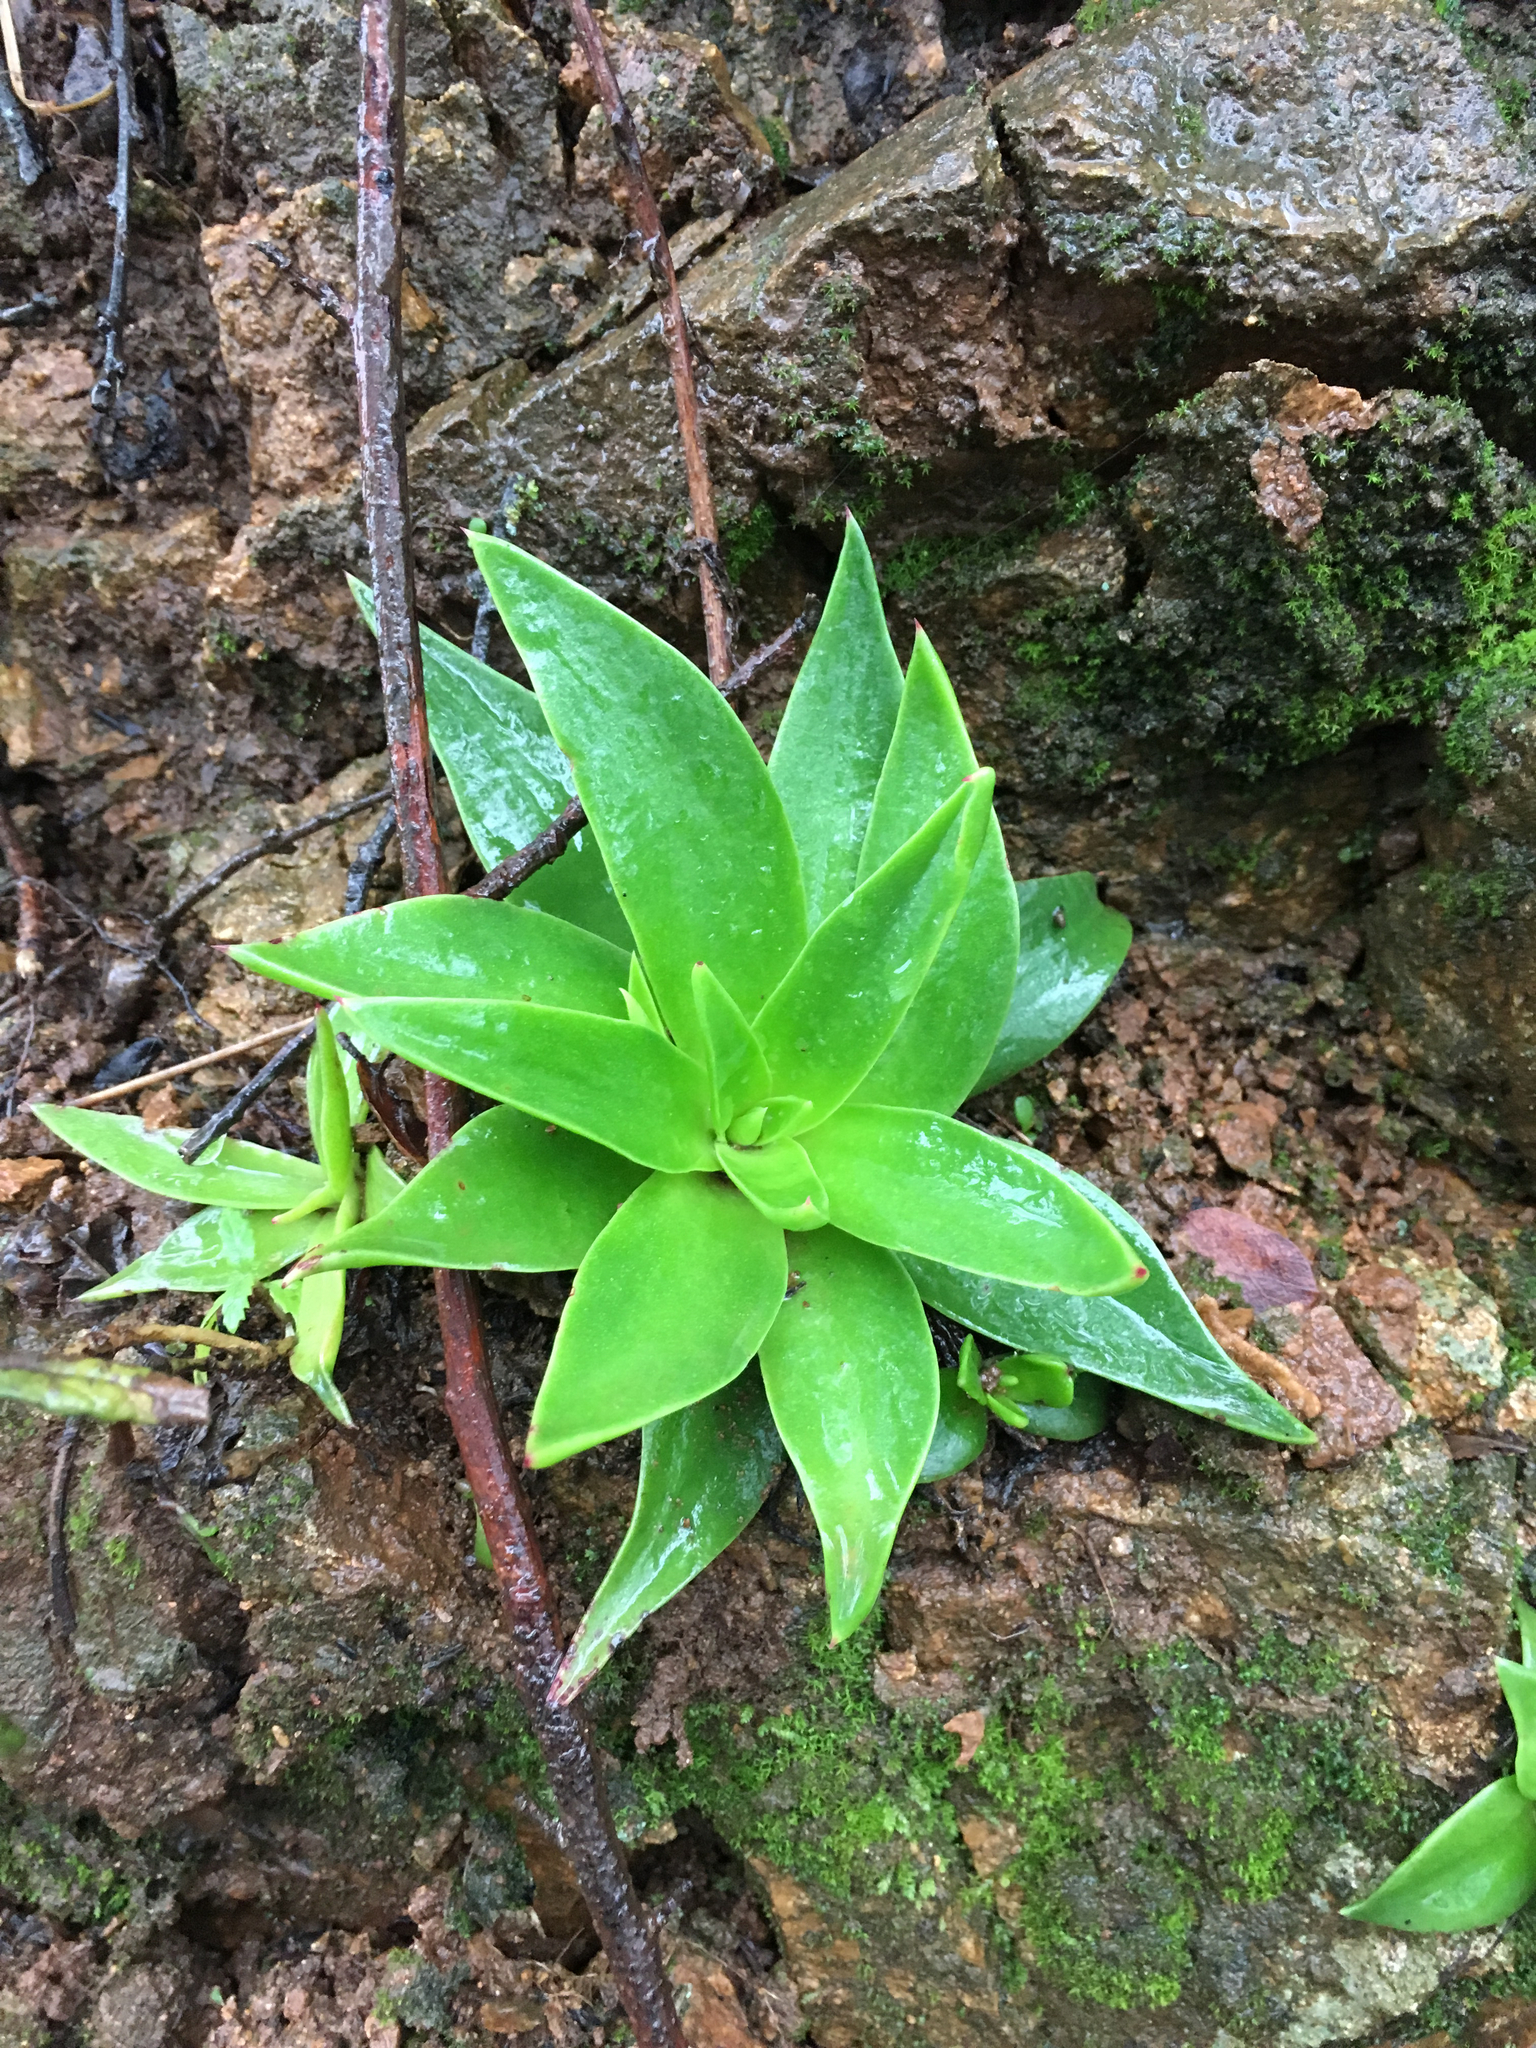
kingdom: Plantae
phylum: Tracheophyta
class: Magnoliopsida
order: Saxifragales
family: Crassulaceae
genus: Dudleya
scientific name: Dudleya lanceolata
